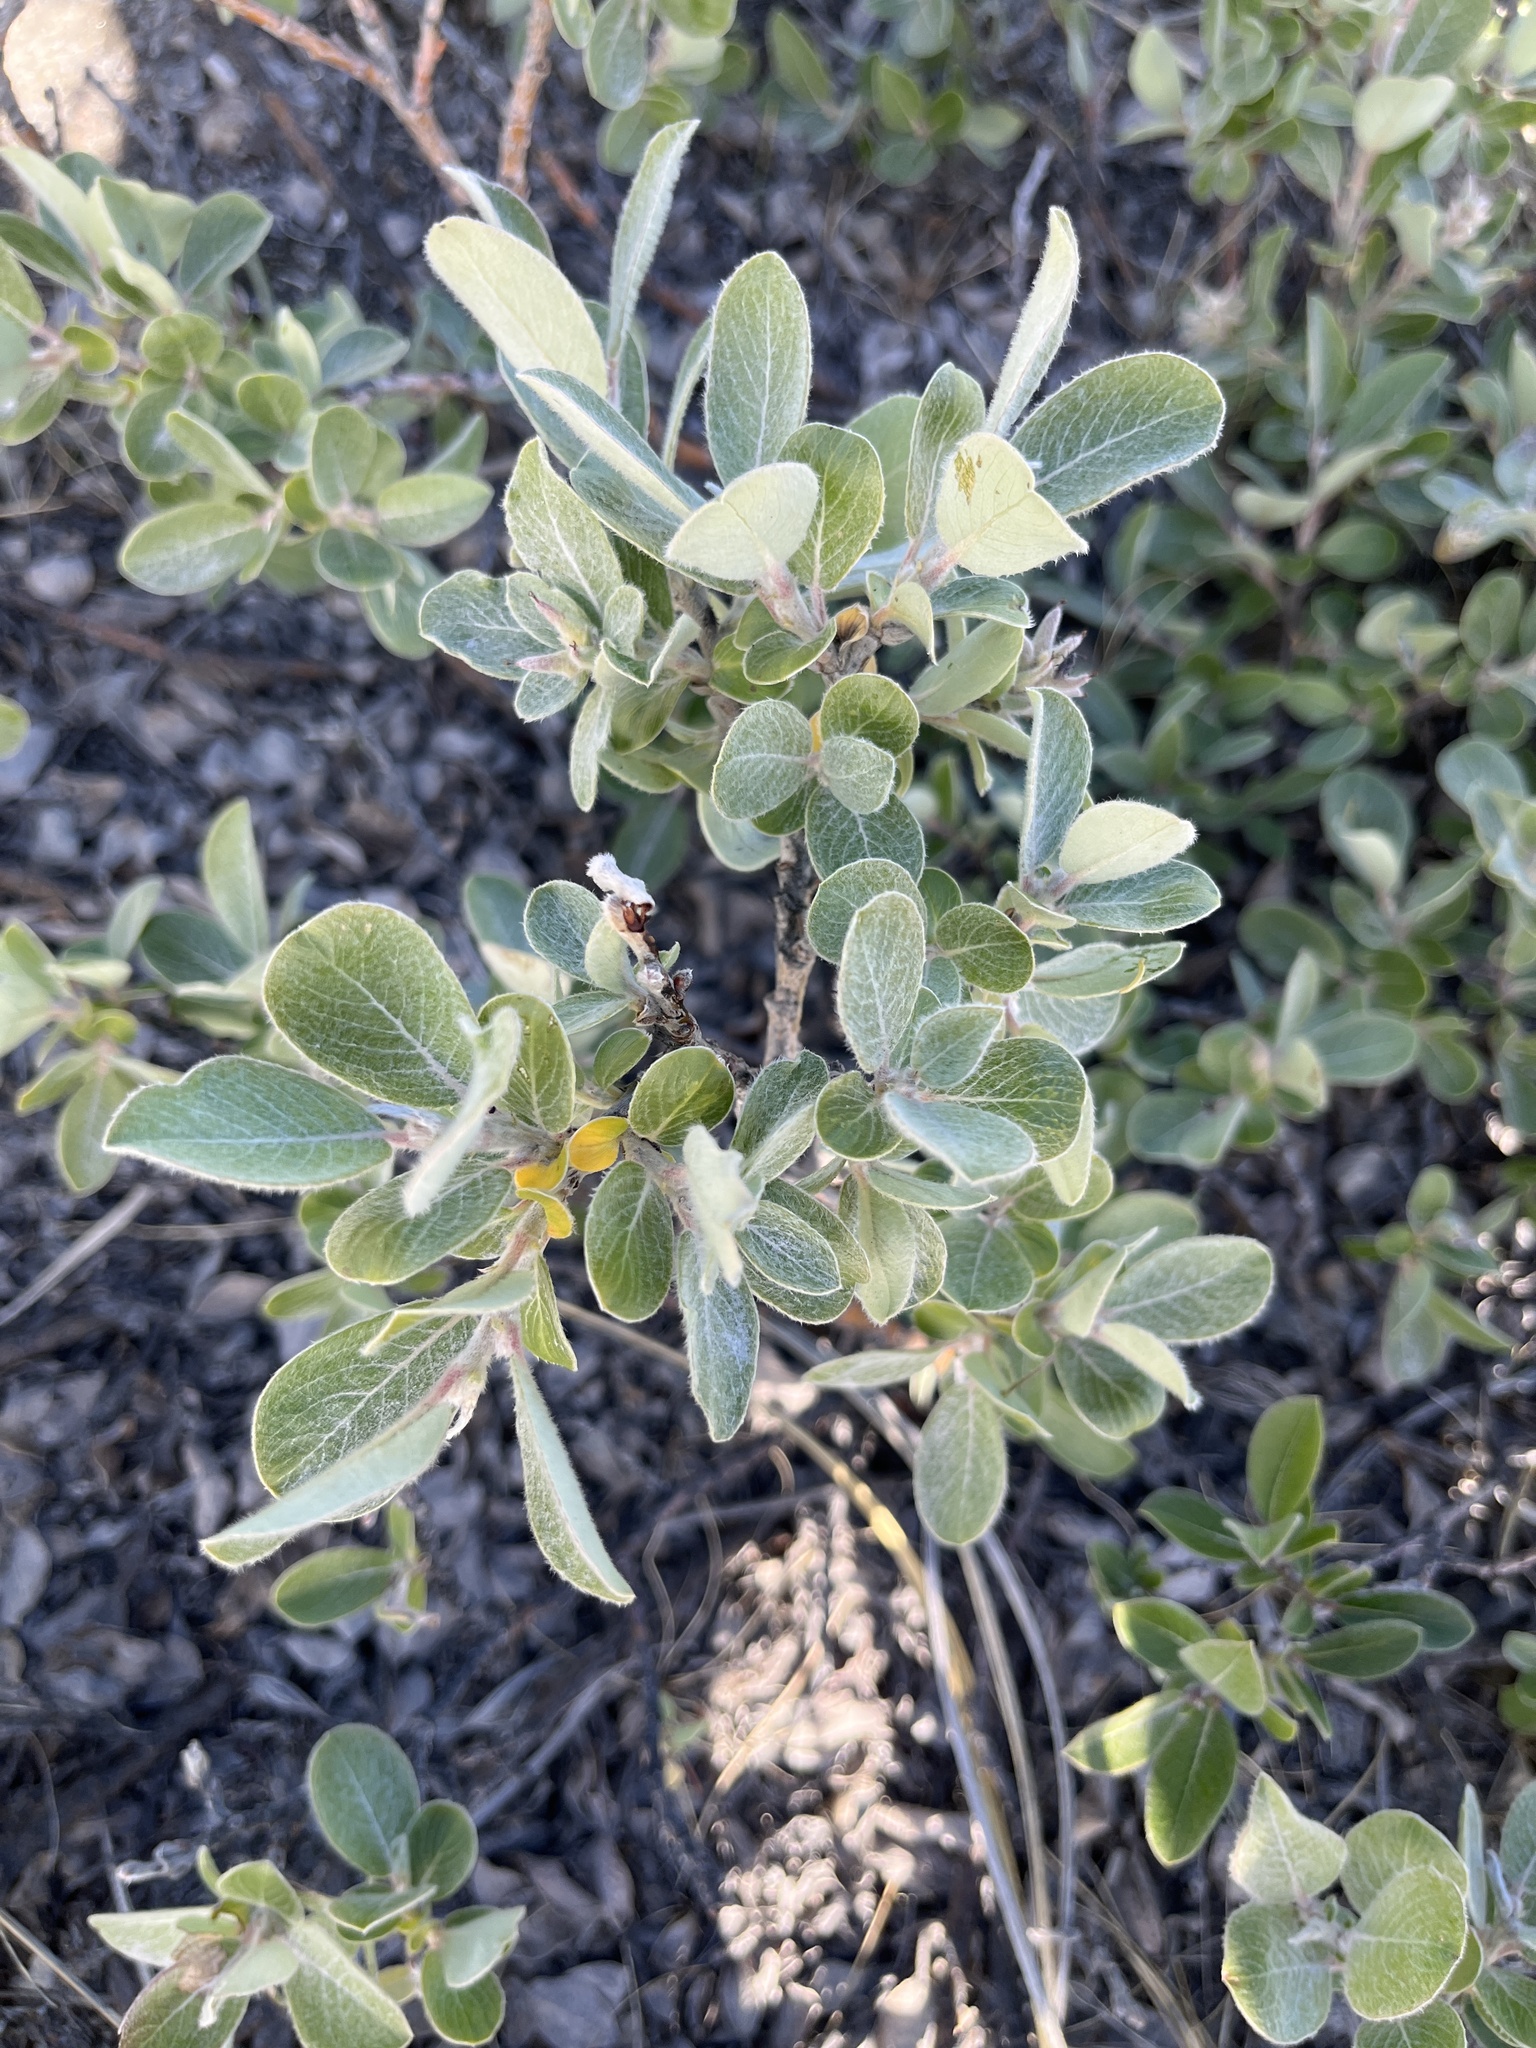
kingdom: Plantae
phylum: Tracheophyta
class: Magnoliopsida
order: Malpighiales
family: Salicaceae
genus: Salix
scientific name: Salix glauca
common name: Glaucous willow
